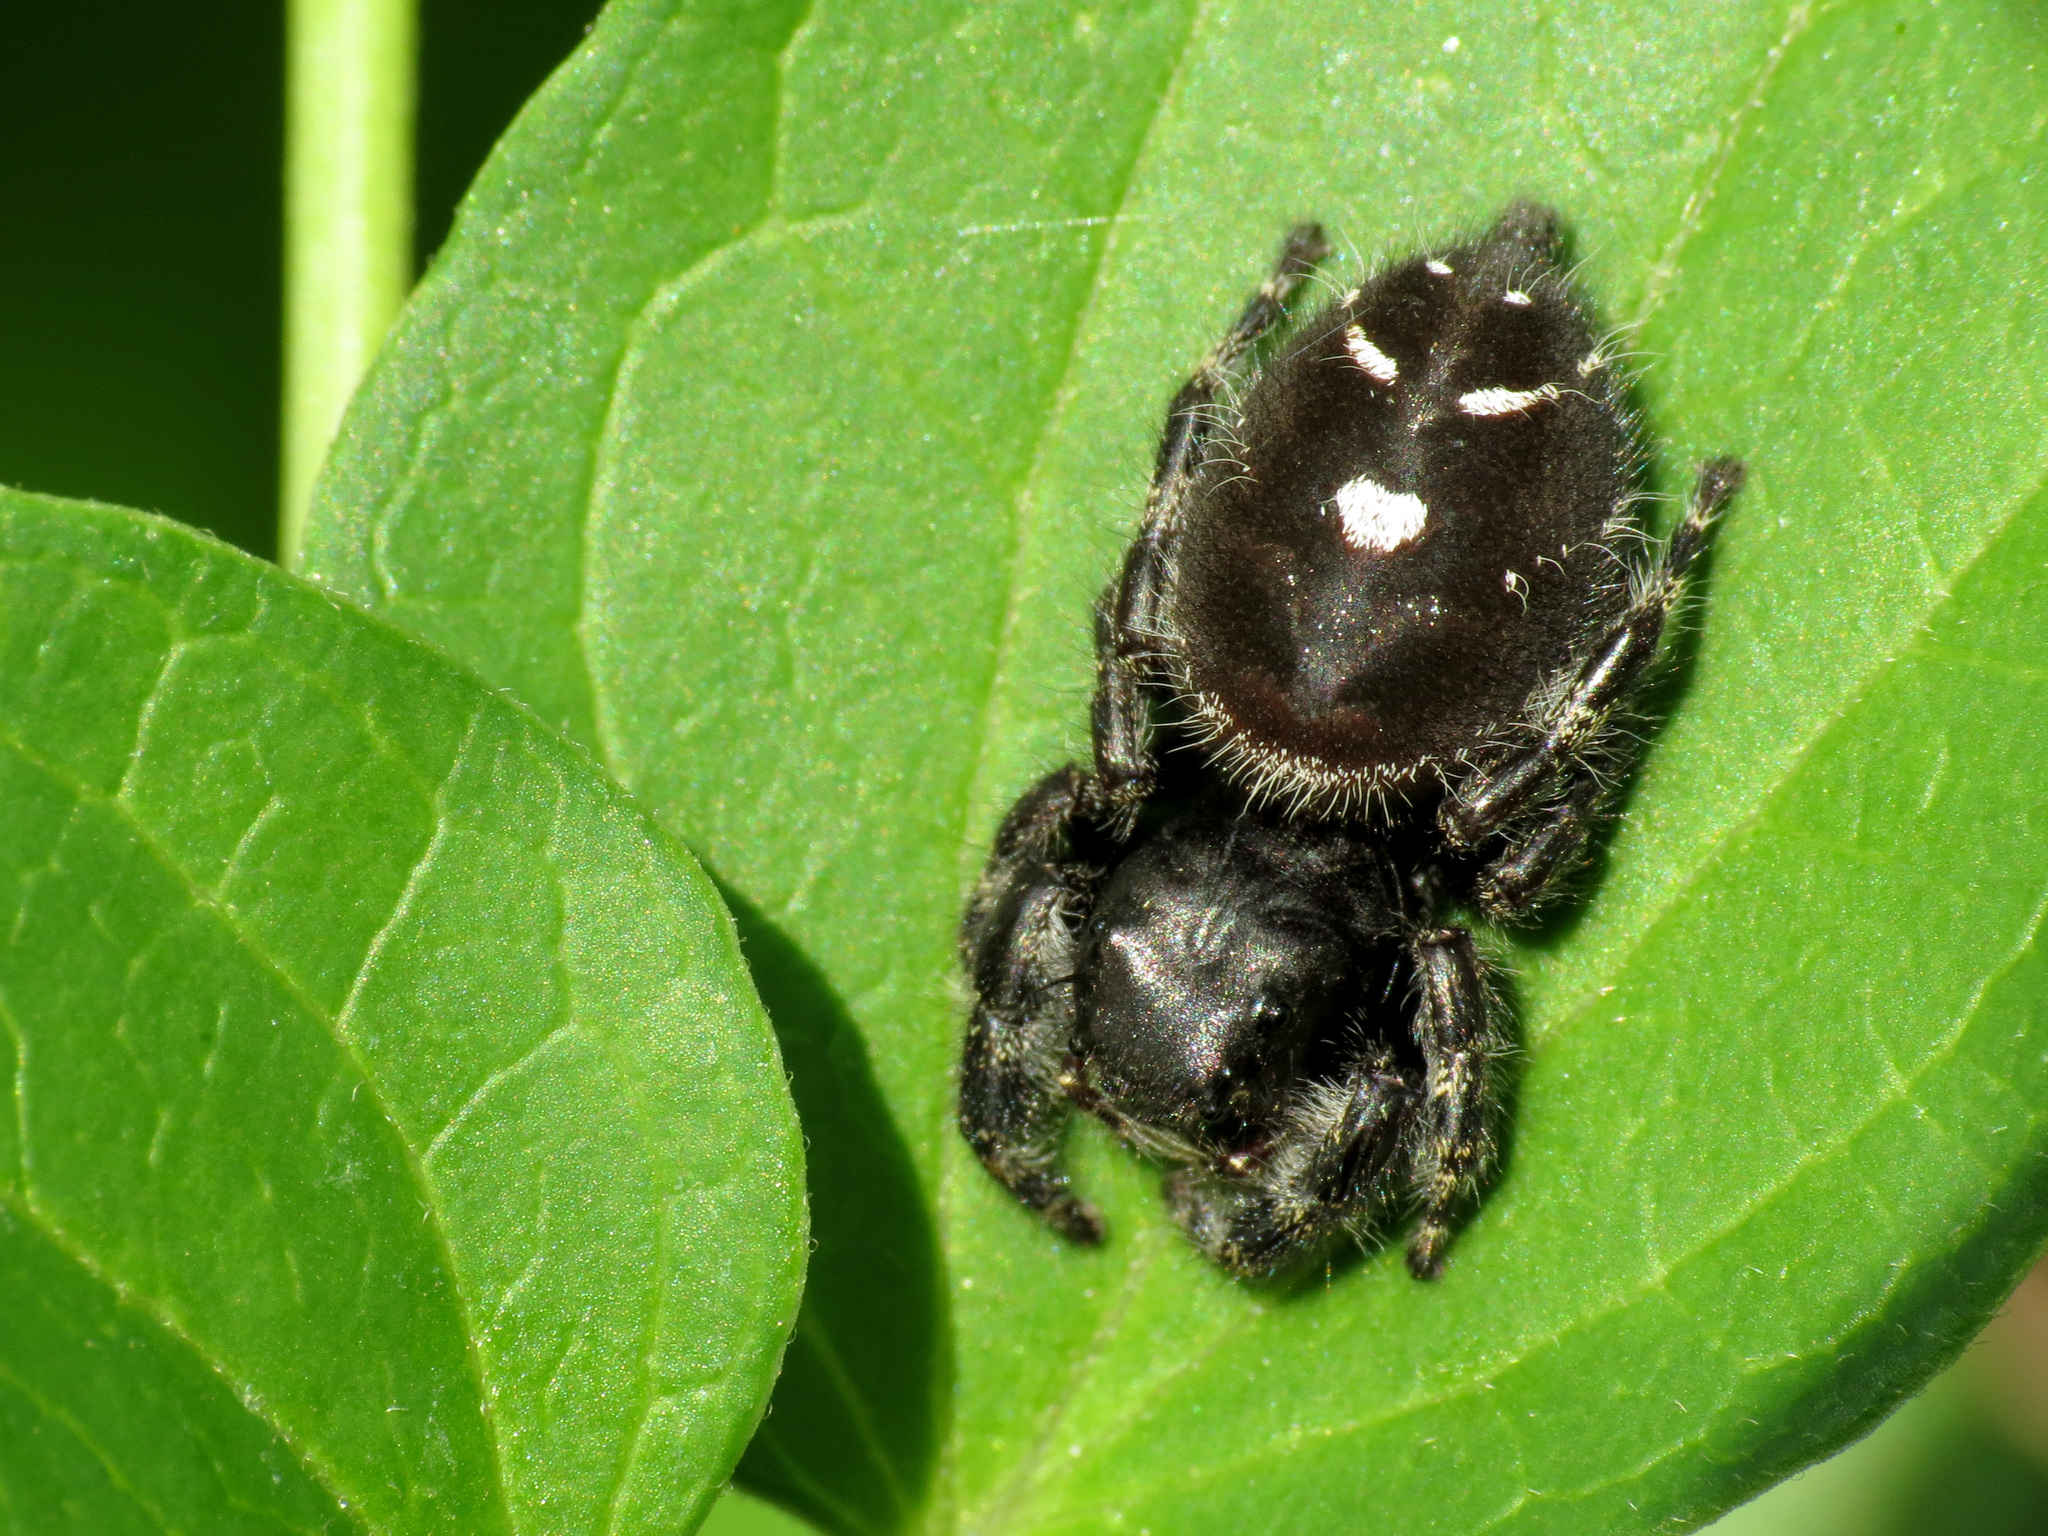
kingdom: Animalia
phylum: Arthropoda
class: Arachnida
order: Araneae
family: Salticidae
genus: Phidippus
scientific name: Phidippus audax
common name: Bold jumper
